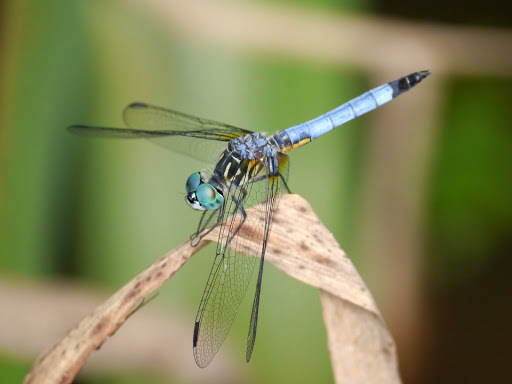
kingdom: Animalia
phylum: Arthropoda
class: Insecta
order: Odonata
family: Libellulidae
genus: Pachydiplax
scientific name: Pachydiplax longipennis
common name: Blue dasher
